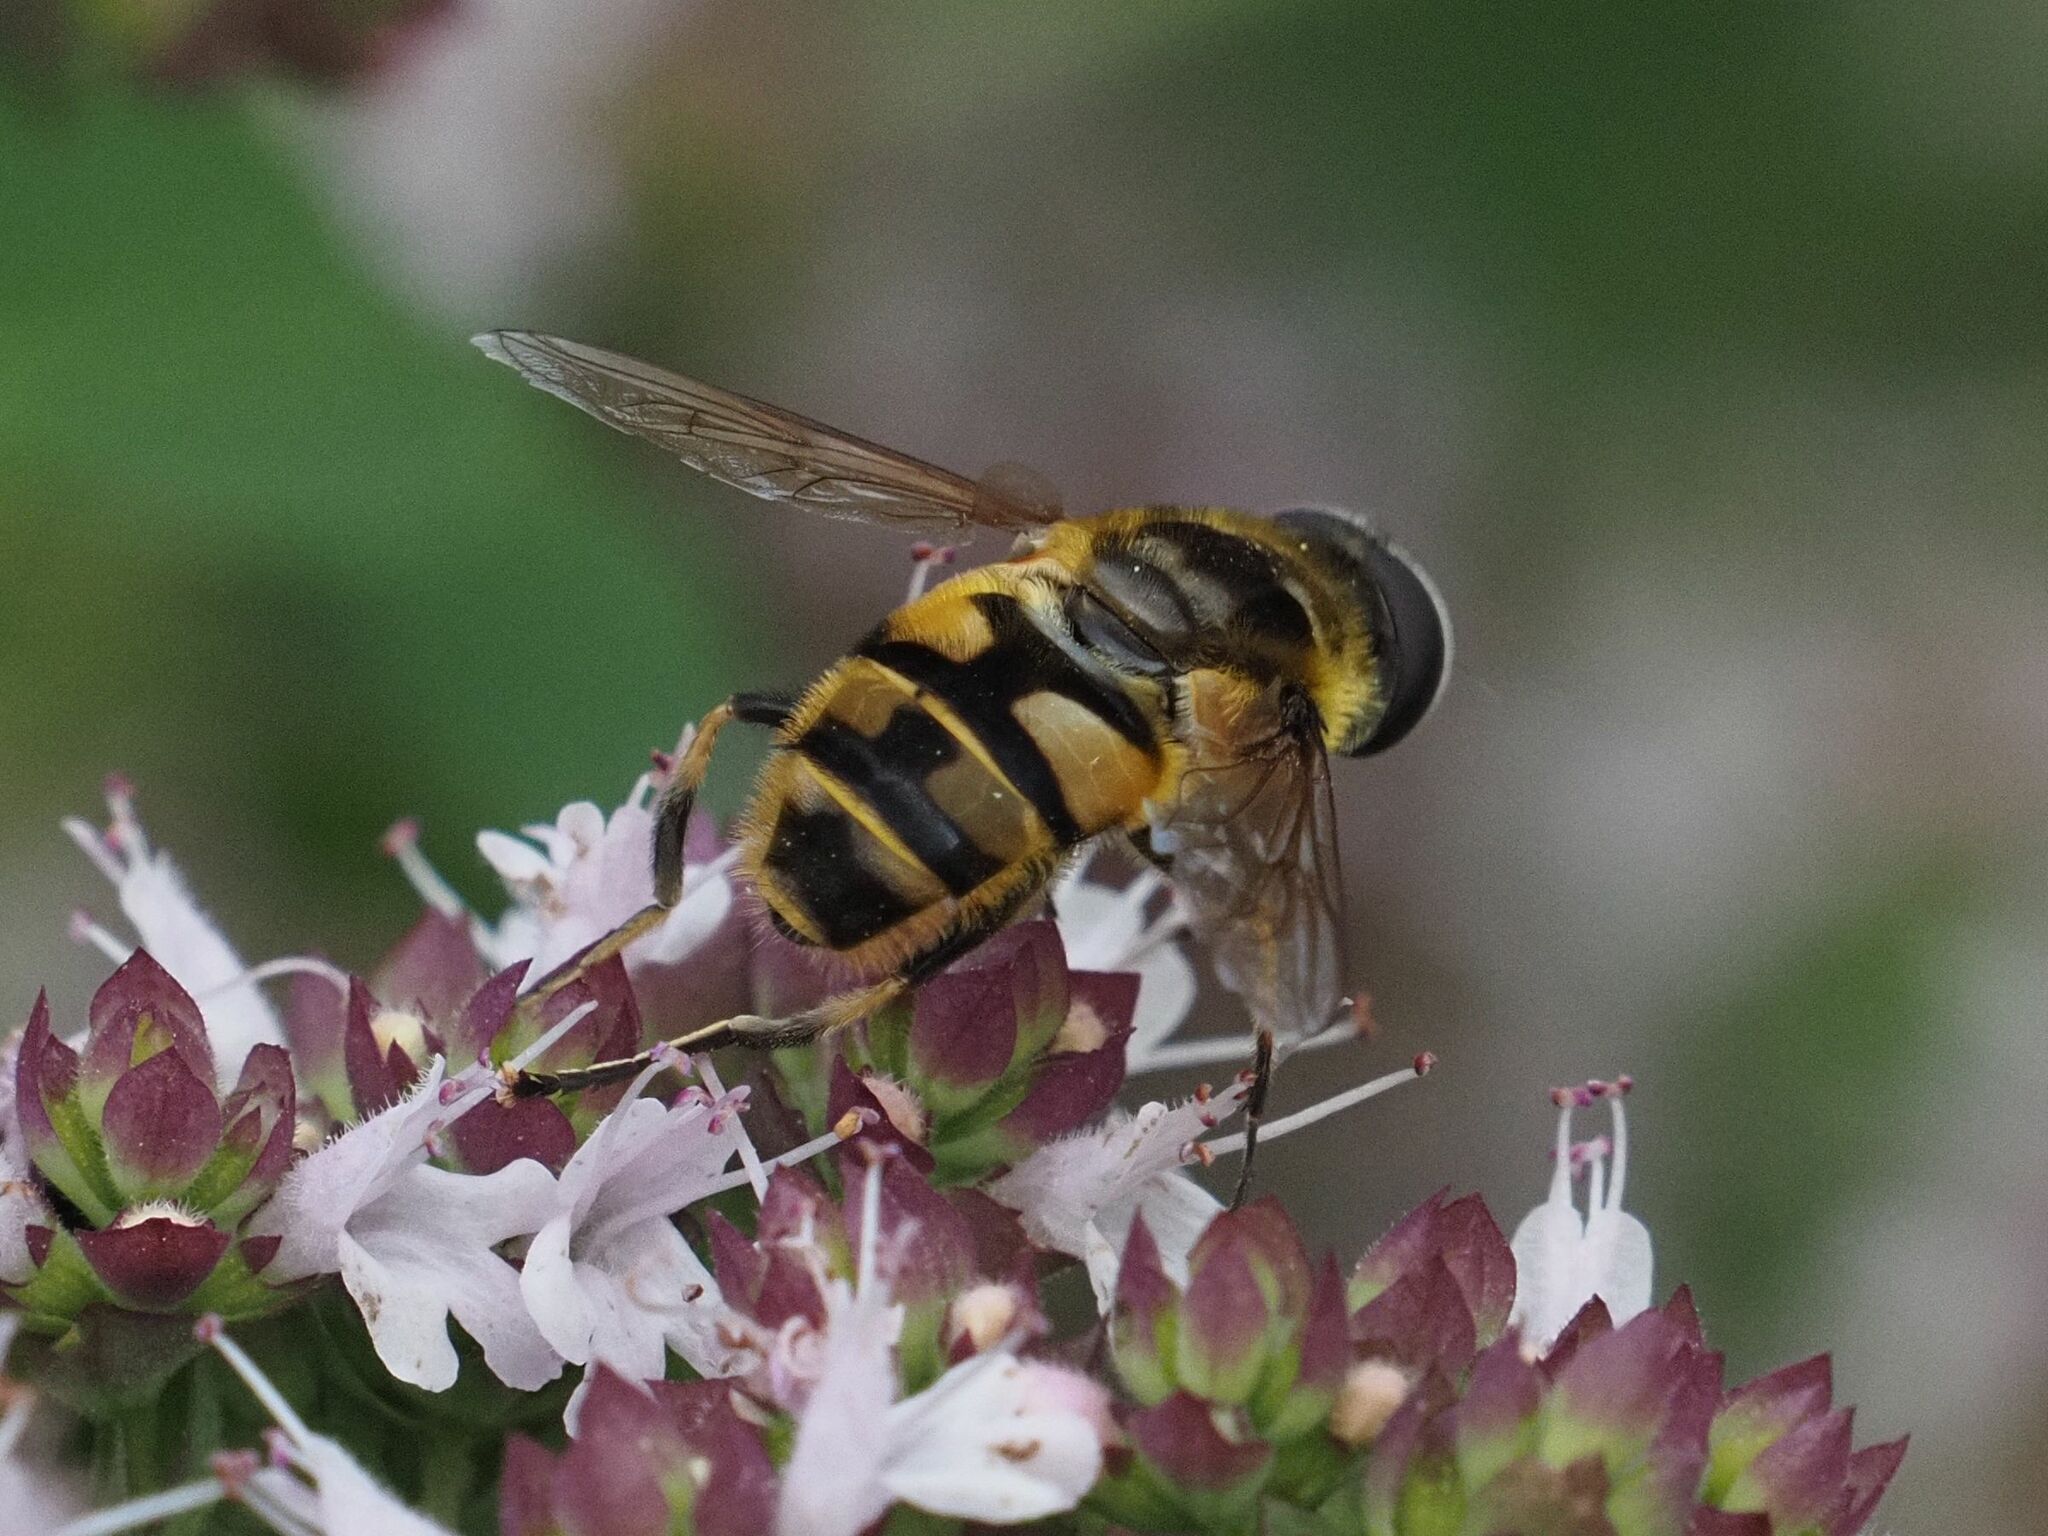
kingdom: Animalia
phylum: Arthropoda
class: Insecta
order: Diptera
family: Syrphidae
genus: Myathropa
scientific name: Myathropa florea
